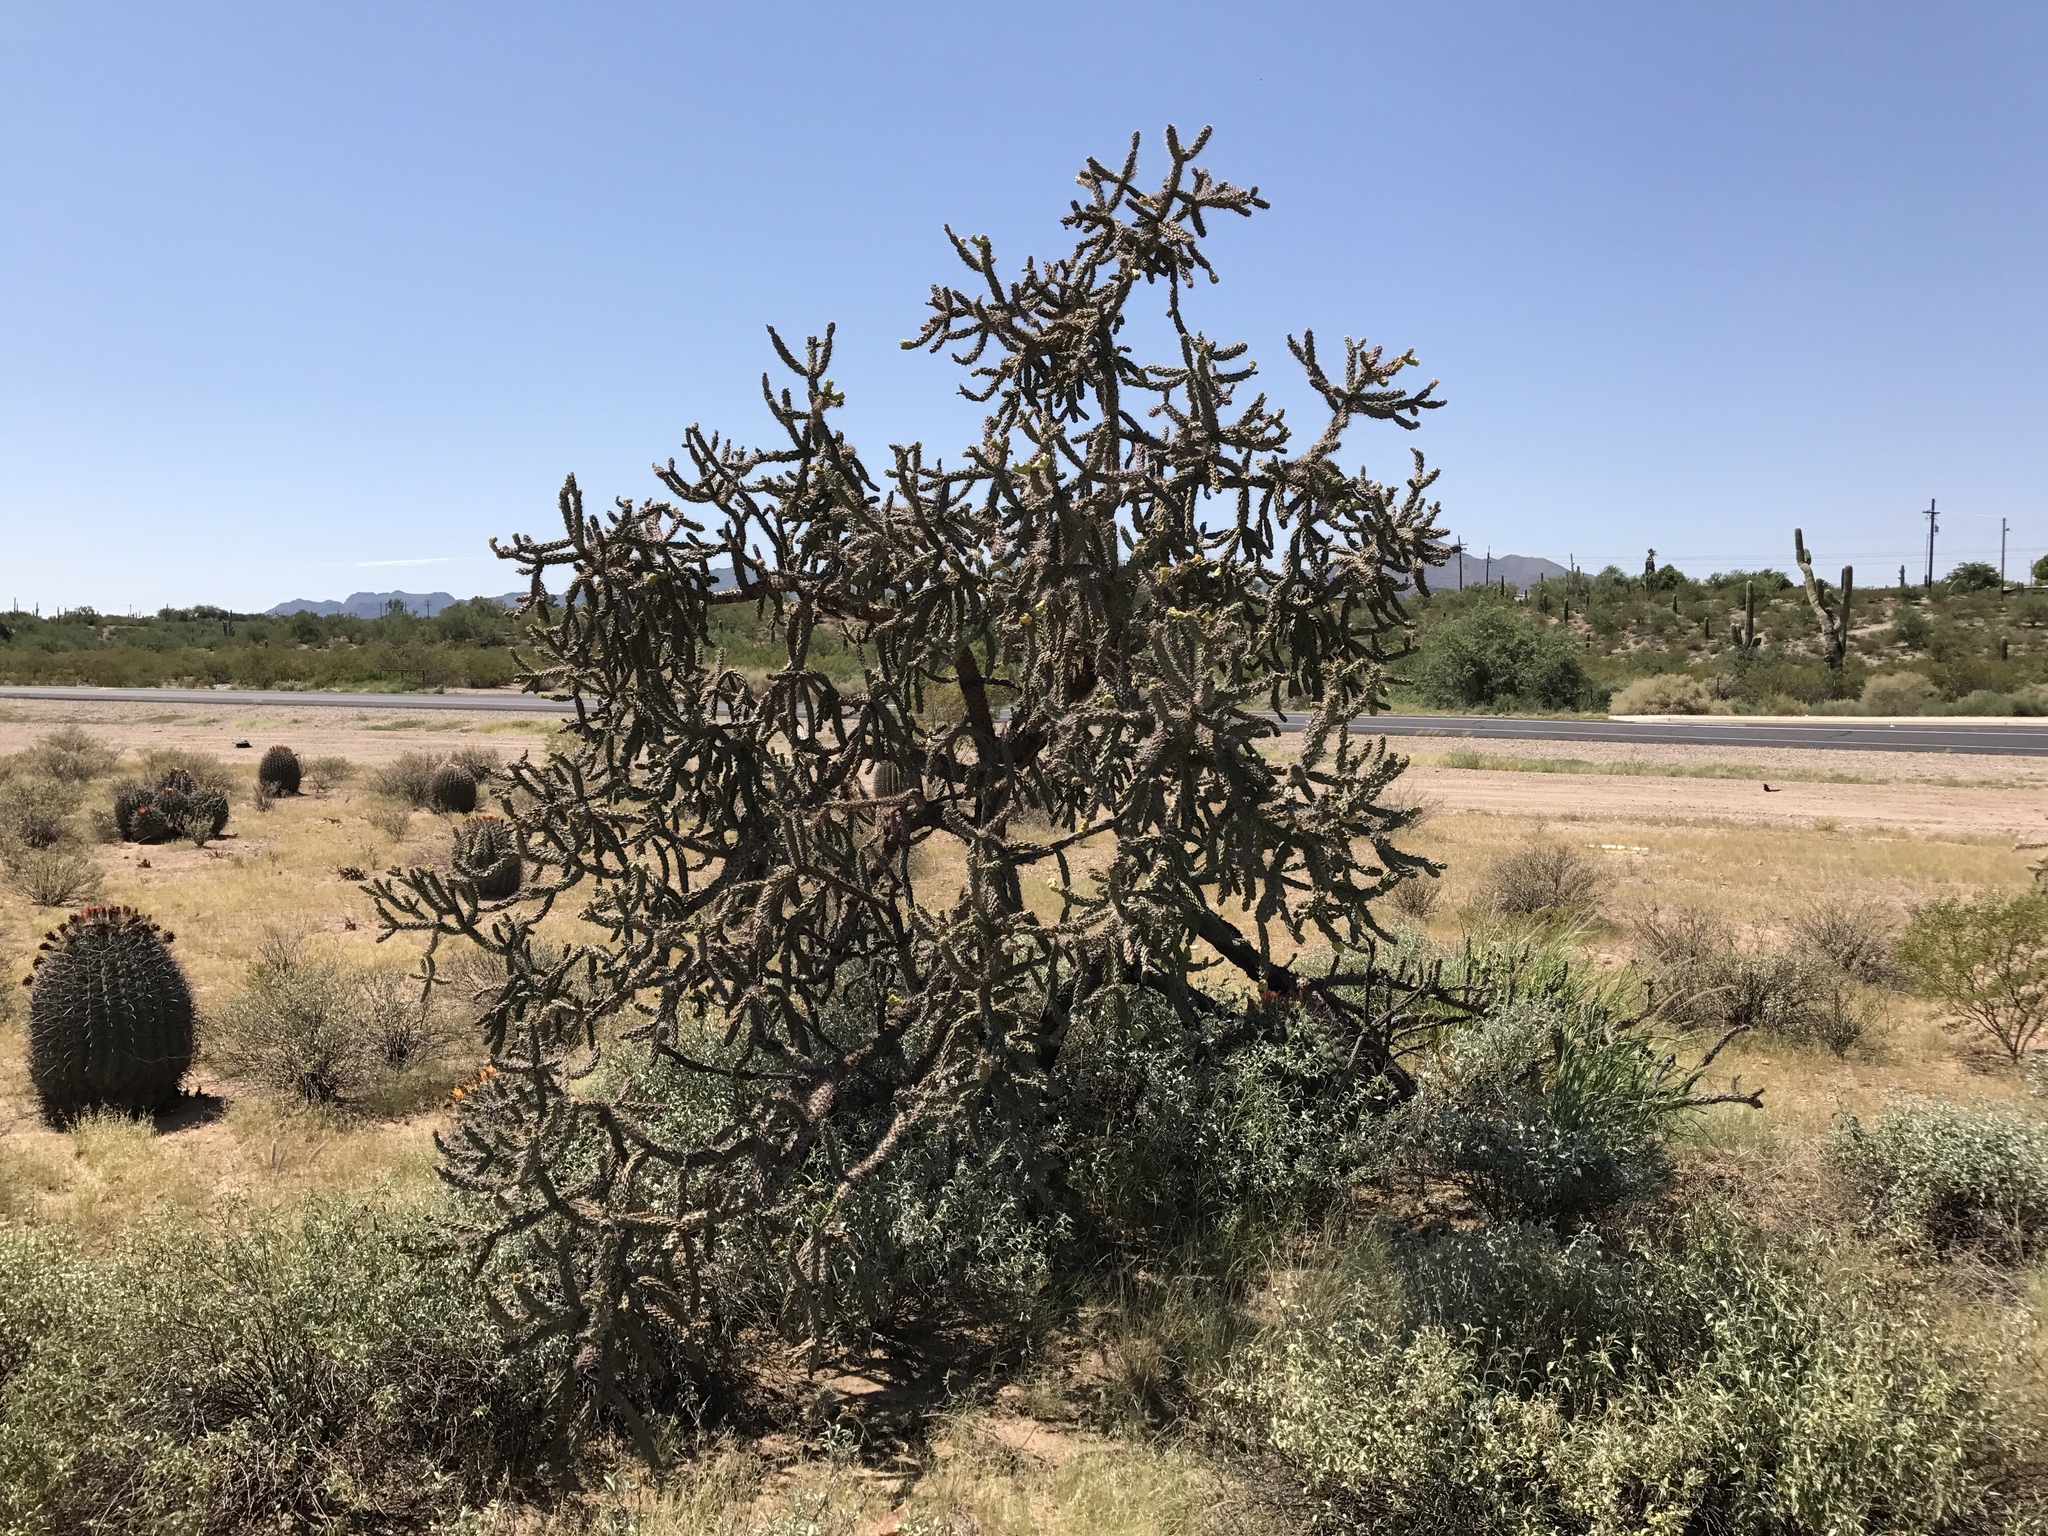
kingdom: Plantae
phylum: Tracheophyta
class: Magnoliopsida
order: Caryophyllales
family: Cactaceae
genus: Cylindropuntia
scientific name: Cylindropuntia thurberi
